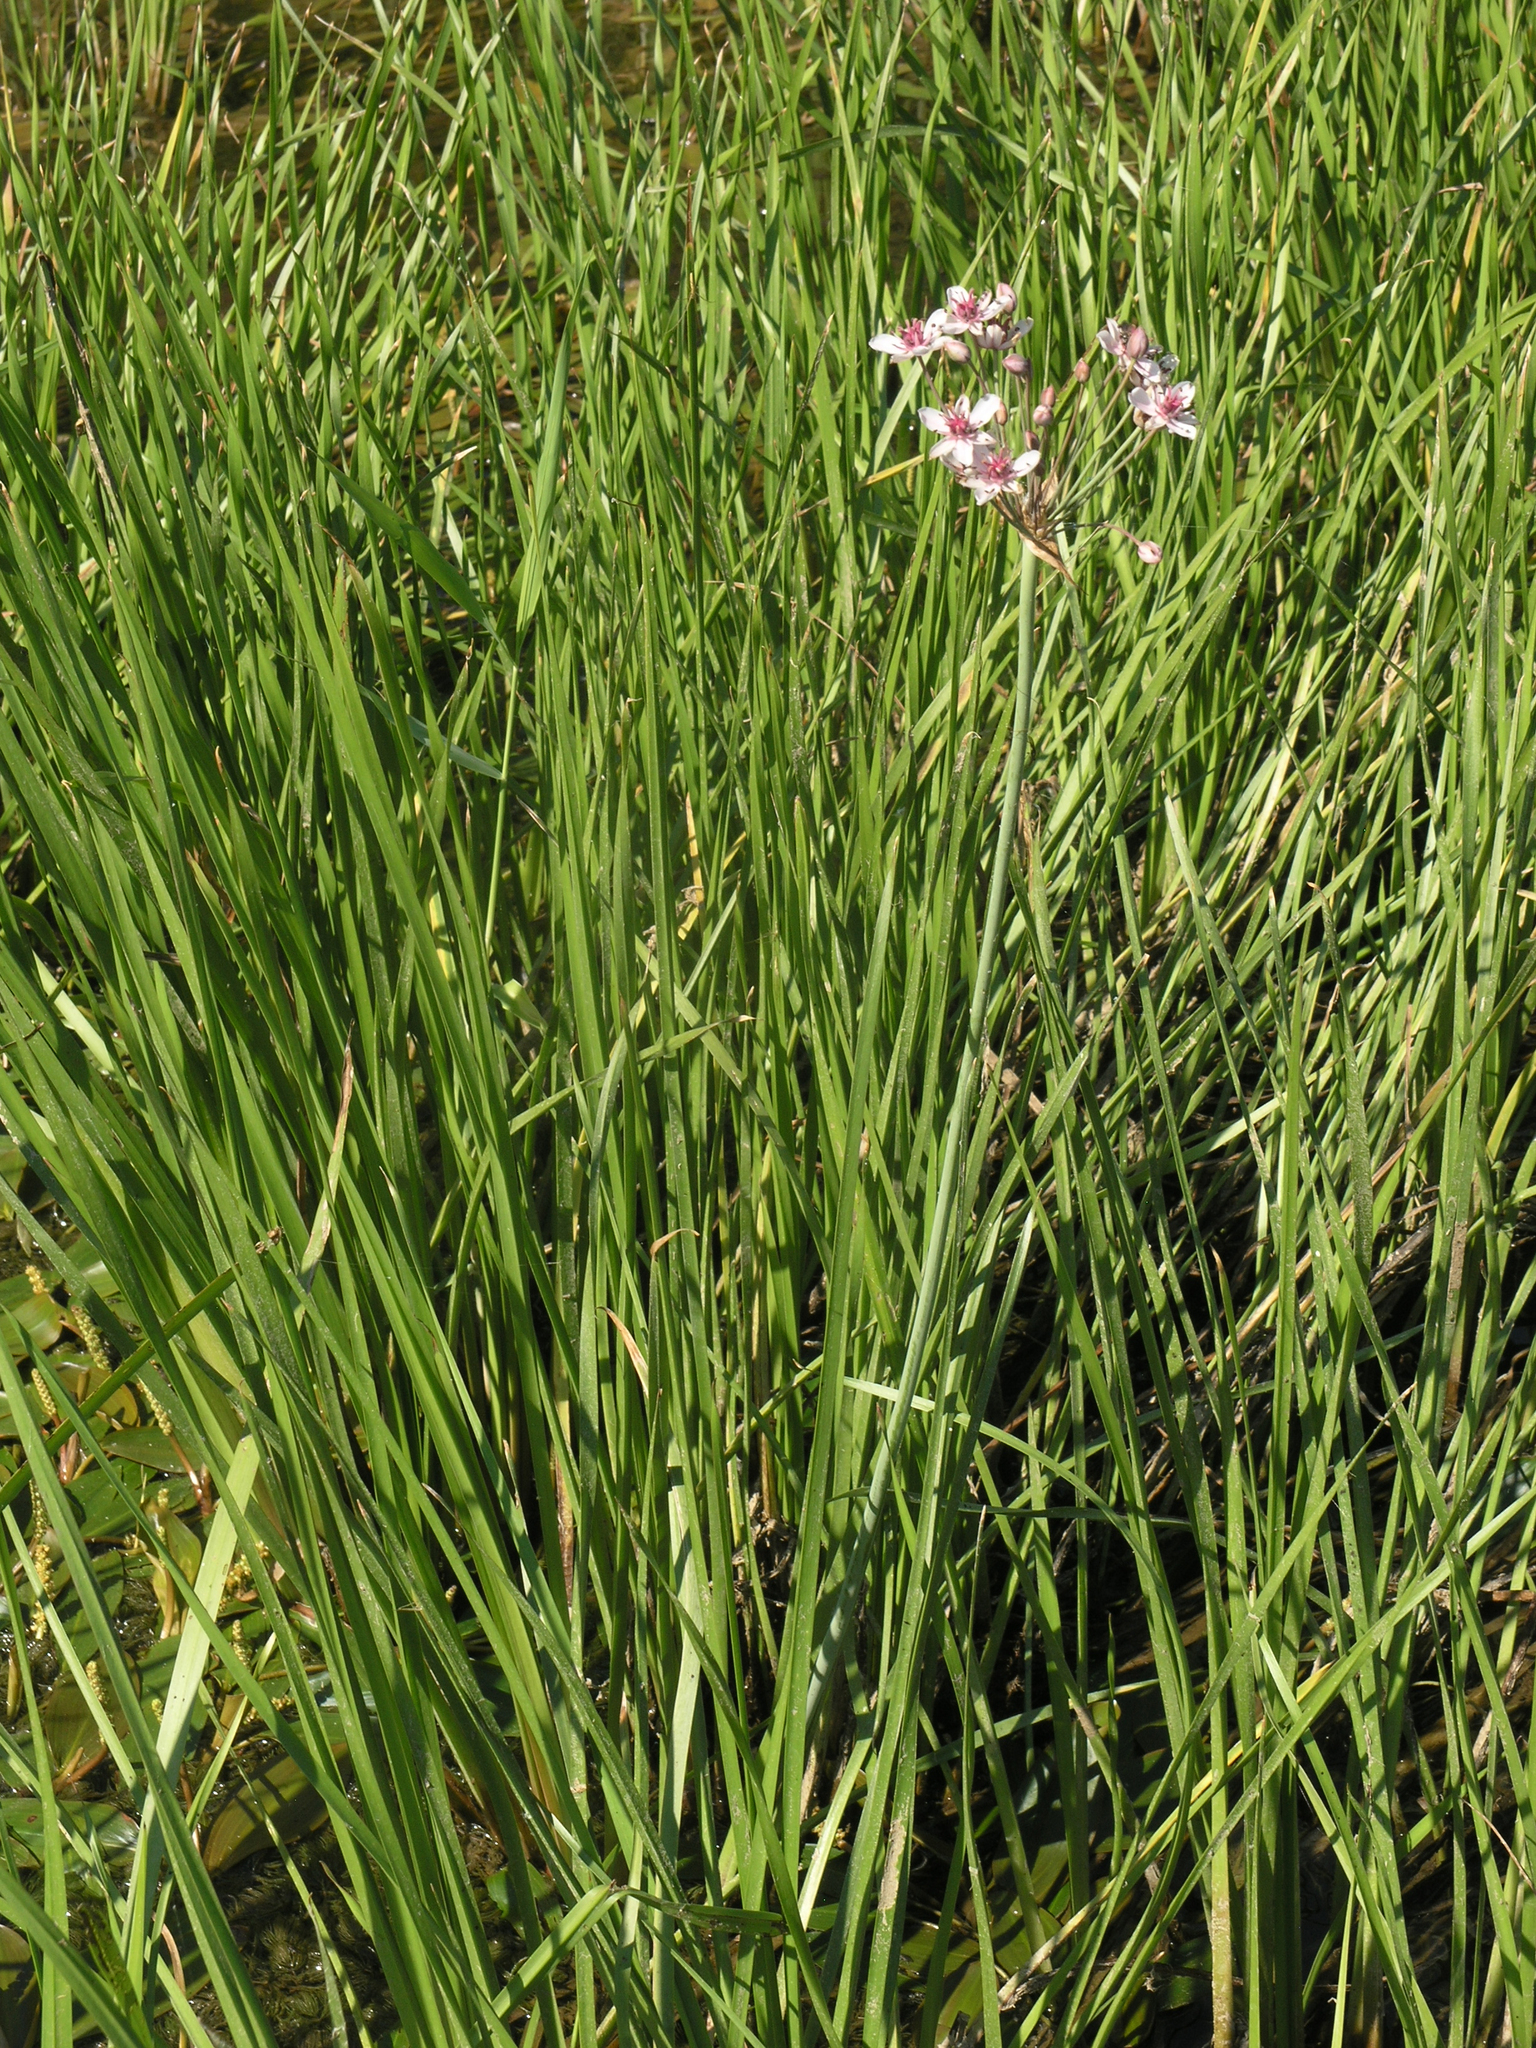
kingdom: Plantae
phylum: Tracheophyta
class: Liliopsida
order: Alismatales
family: Butomaceae
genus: Butomus
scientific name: Butomus umbellatus
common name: Flowering-rush
